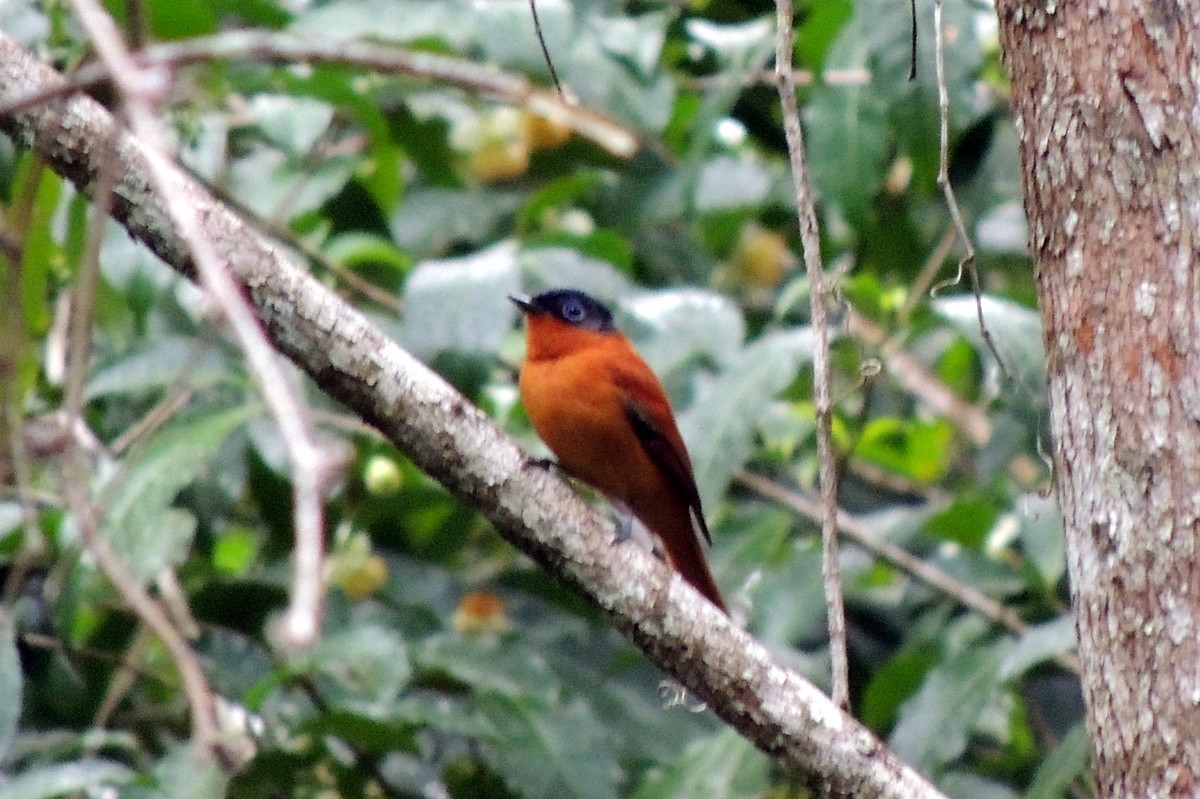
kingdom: Animalia
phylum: Chordata
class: Aves
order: Passeriformes
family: Monarchidae
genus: Terpsiphone
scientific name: Terpsiphone mutata
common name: Malagasy paradise flycatcher
